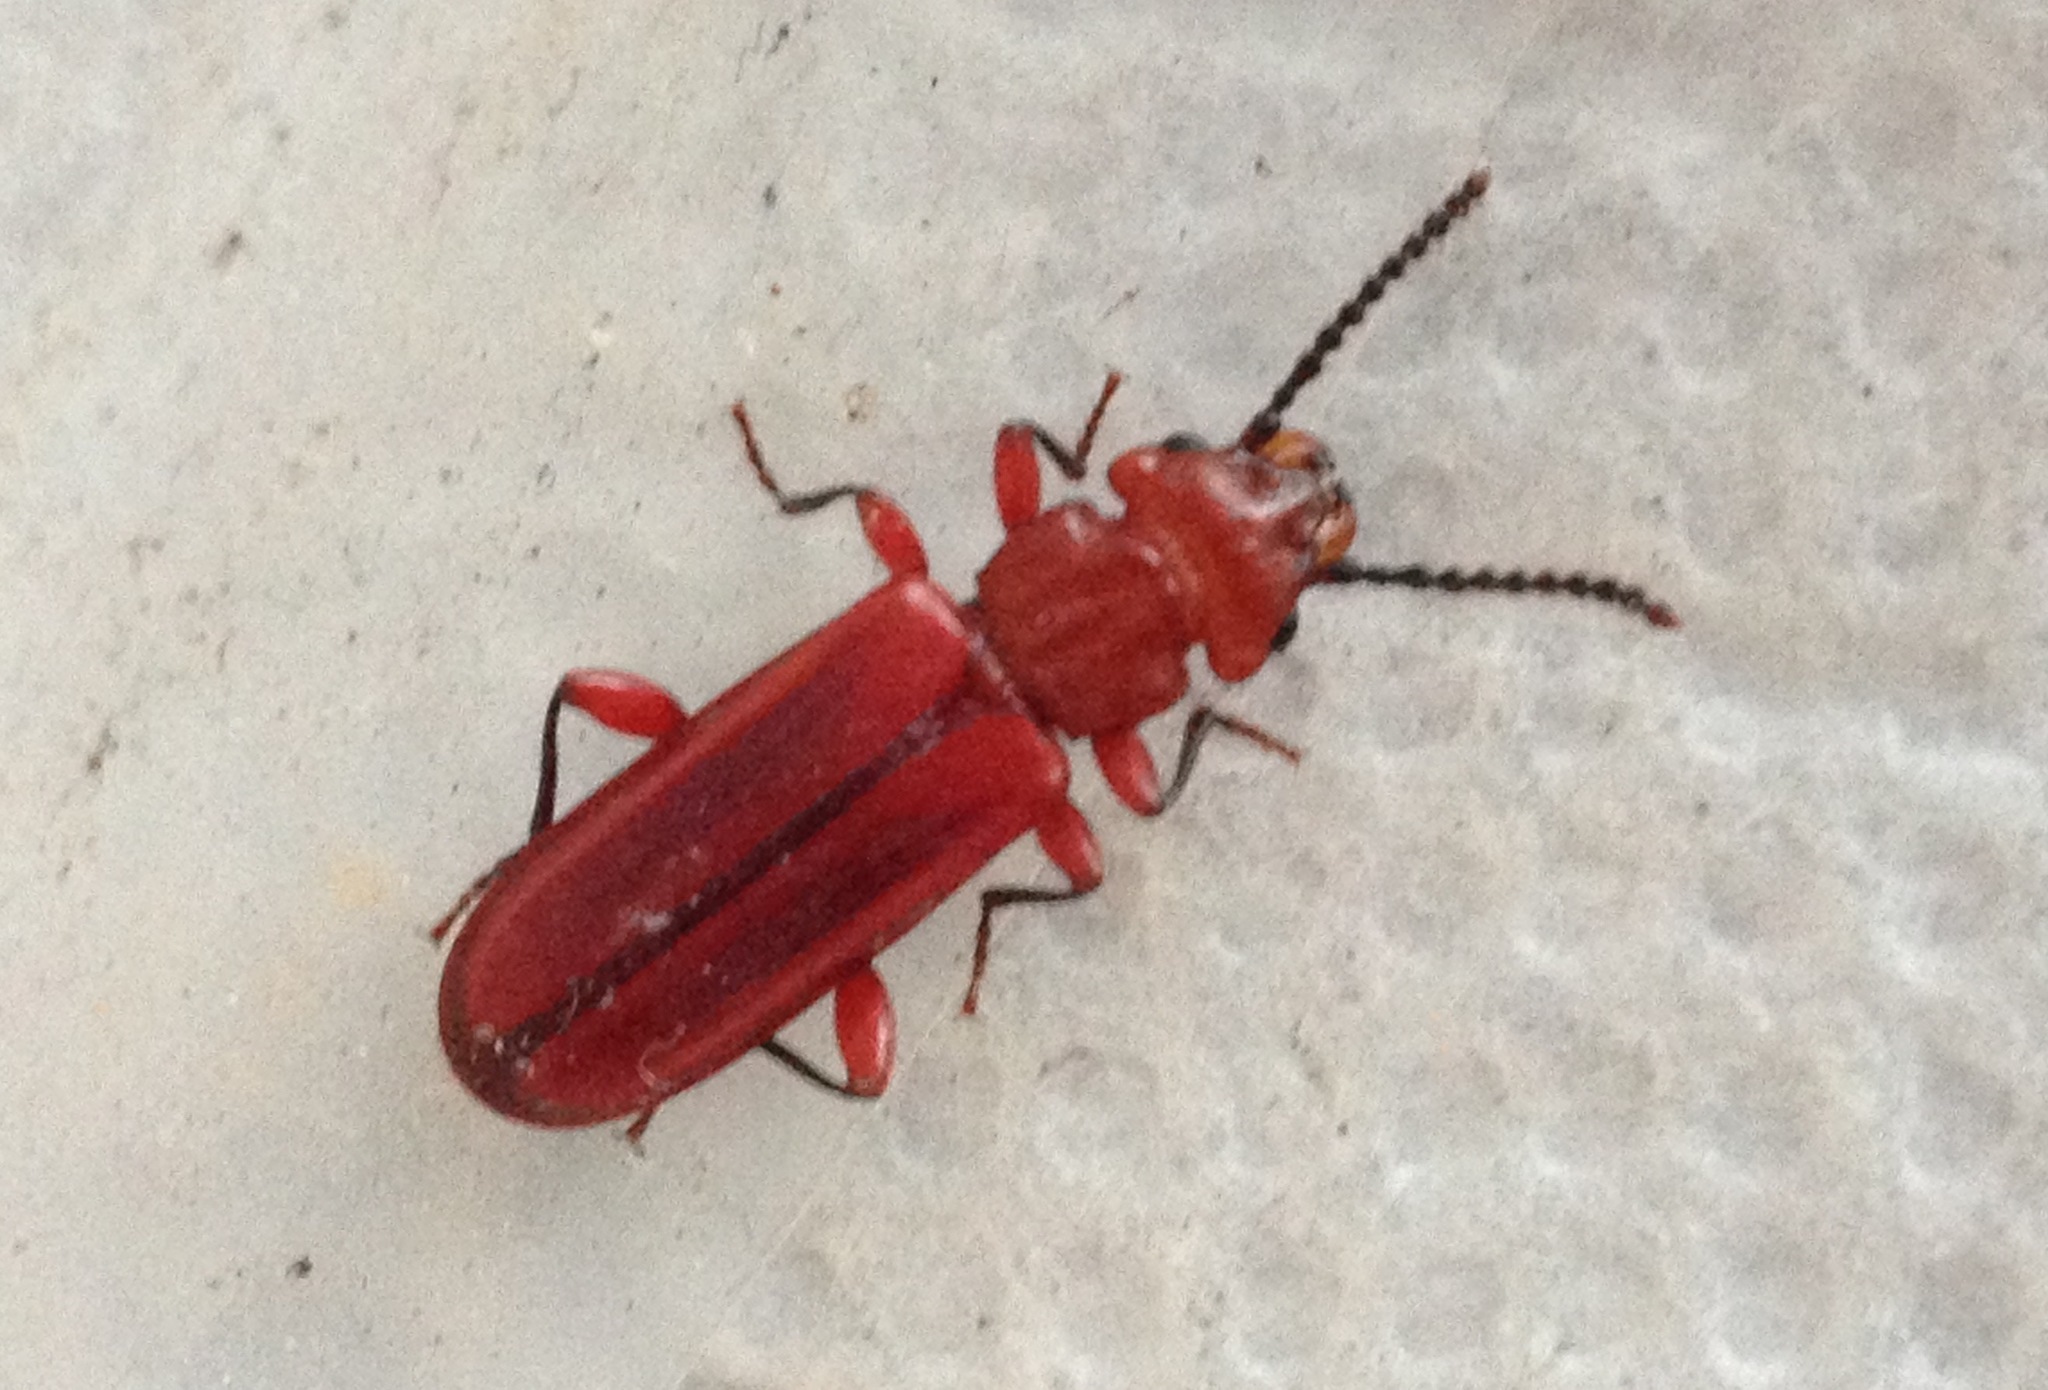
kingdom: Animalia
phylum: Arthropoda
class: Insecta
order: Coleoptera
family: Cucujidae
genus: Cucujus
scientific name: Cucujus clavipes
